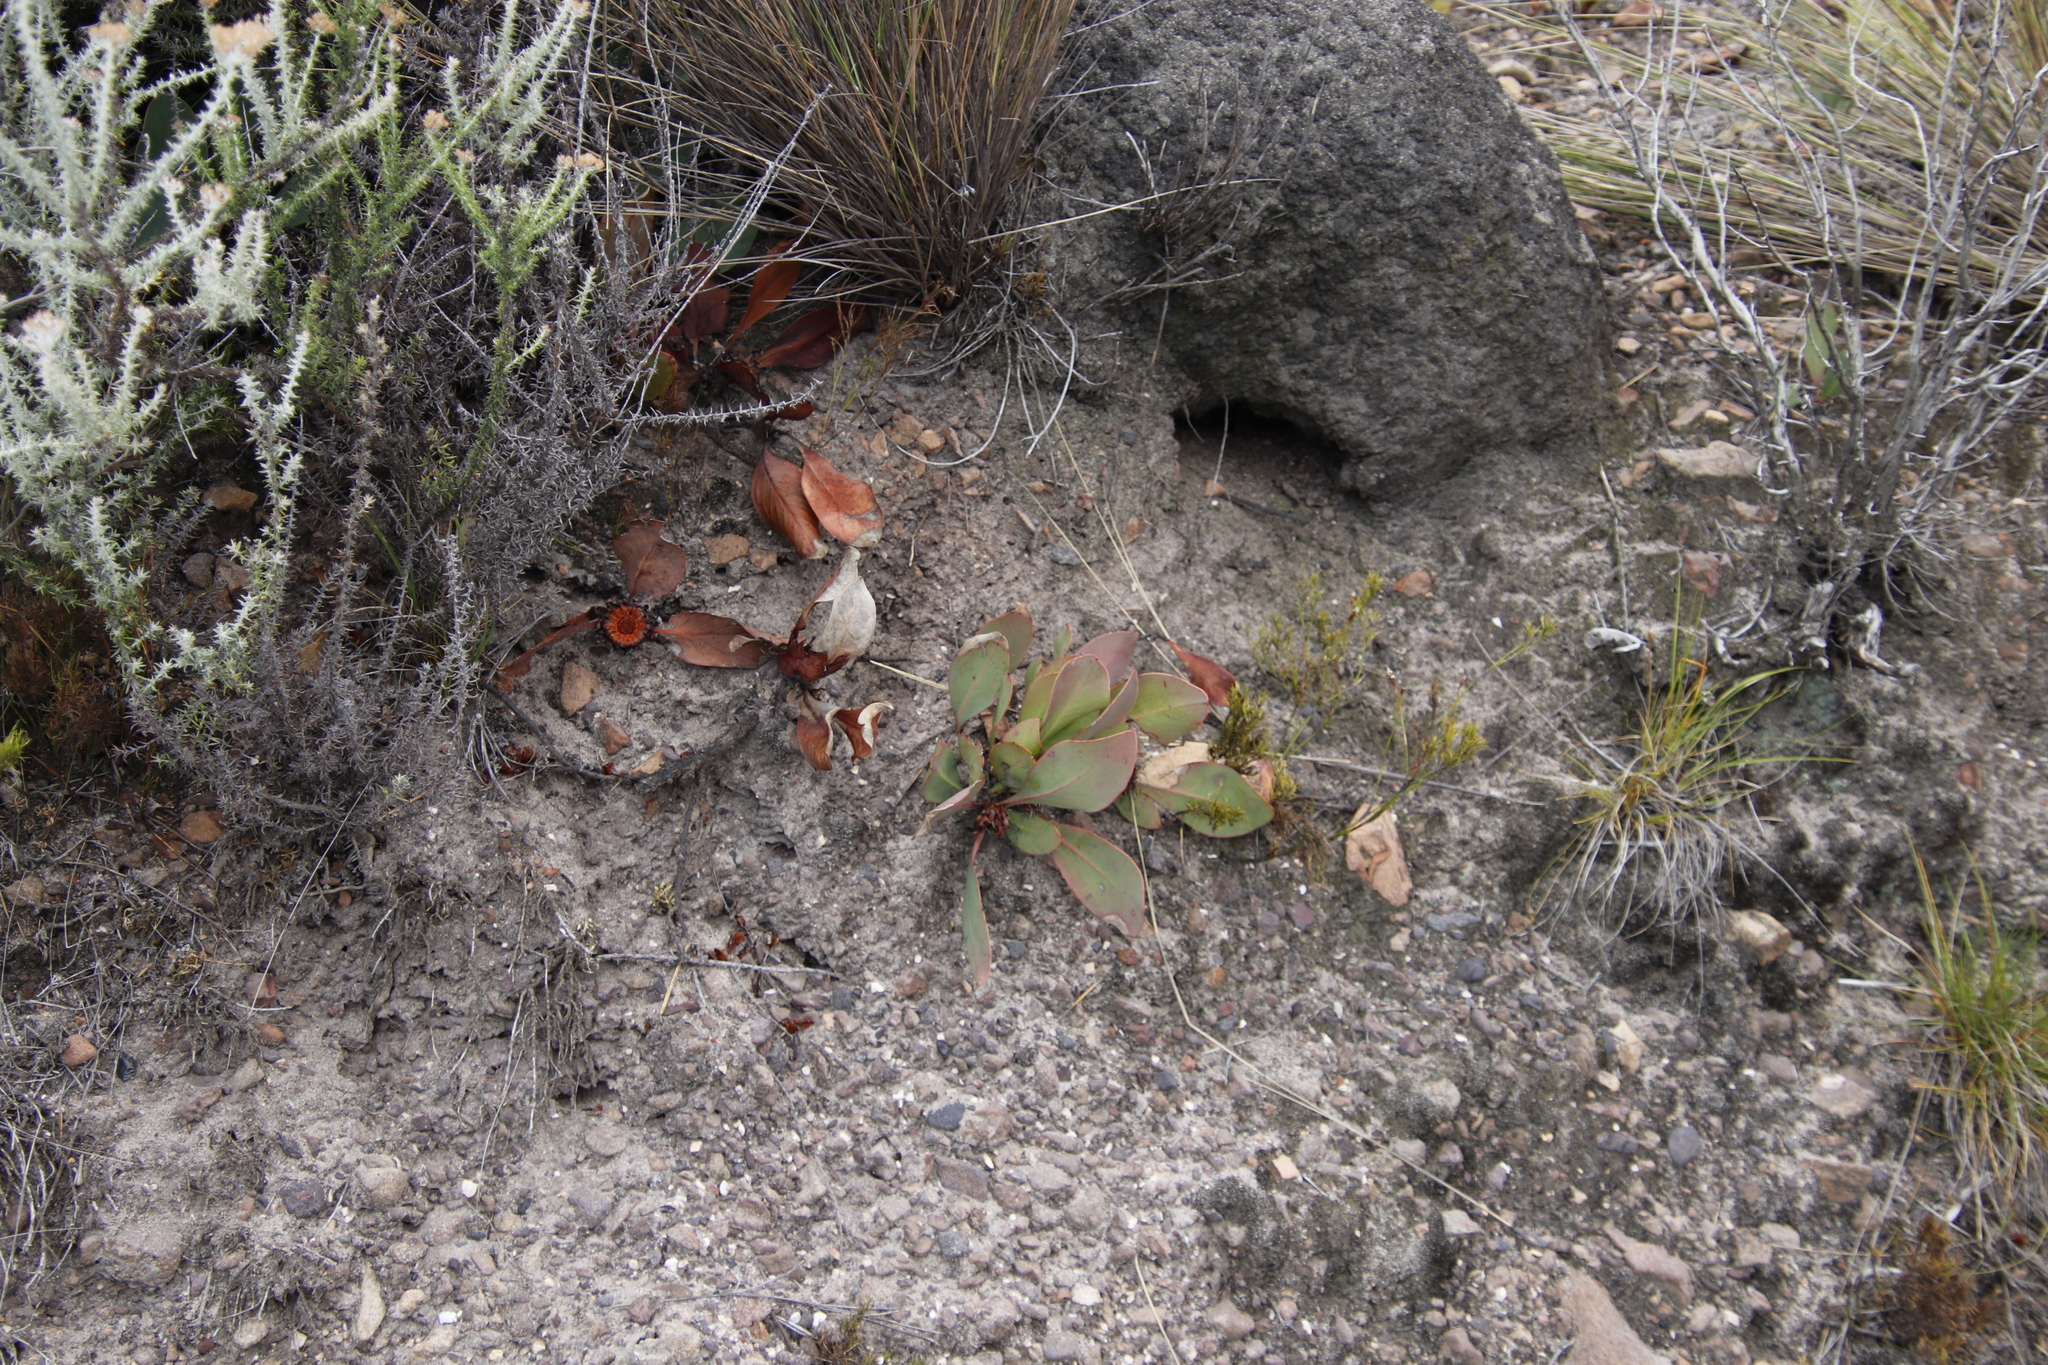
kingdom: Plantae
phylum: Tracheophyta
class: Magnoliopsida
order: Proteales
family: Proteaceae
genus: Protea
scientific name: Protea acaulos
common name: Common ground sugarbush
